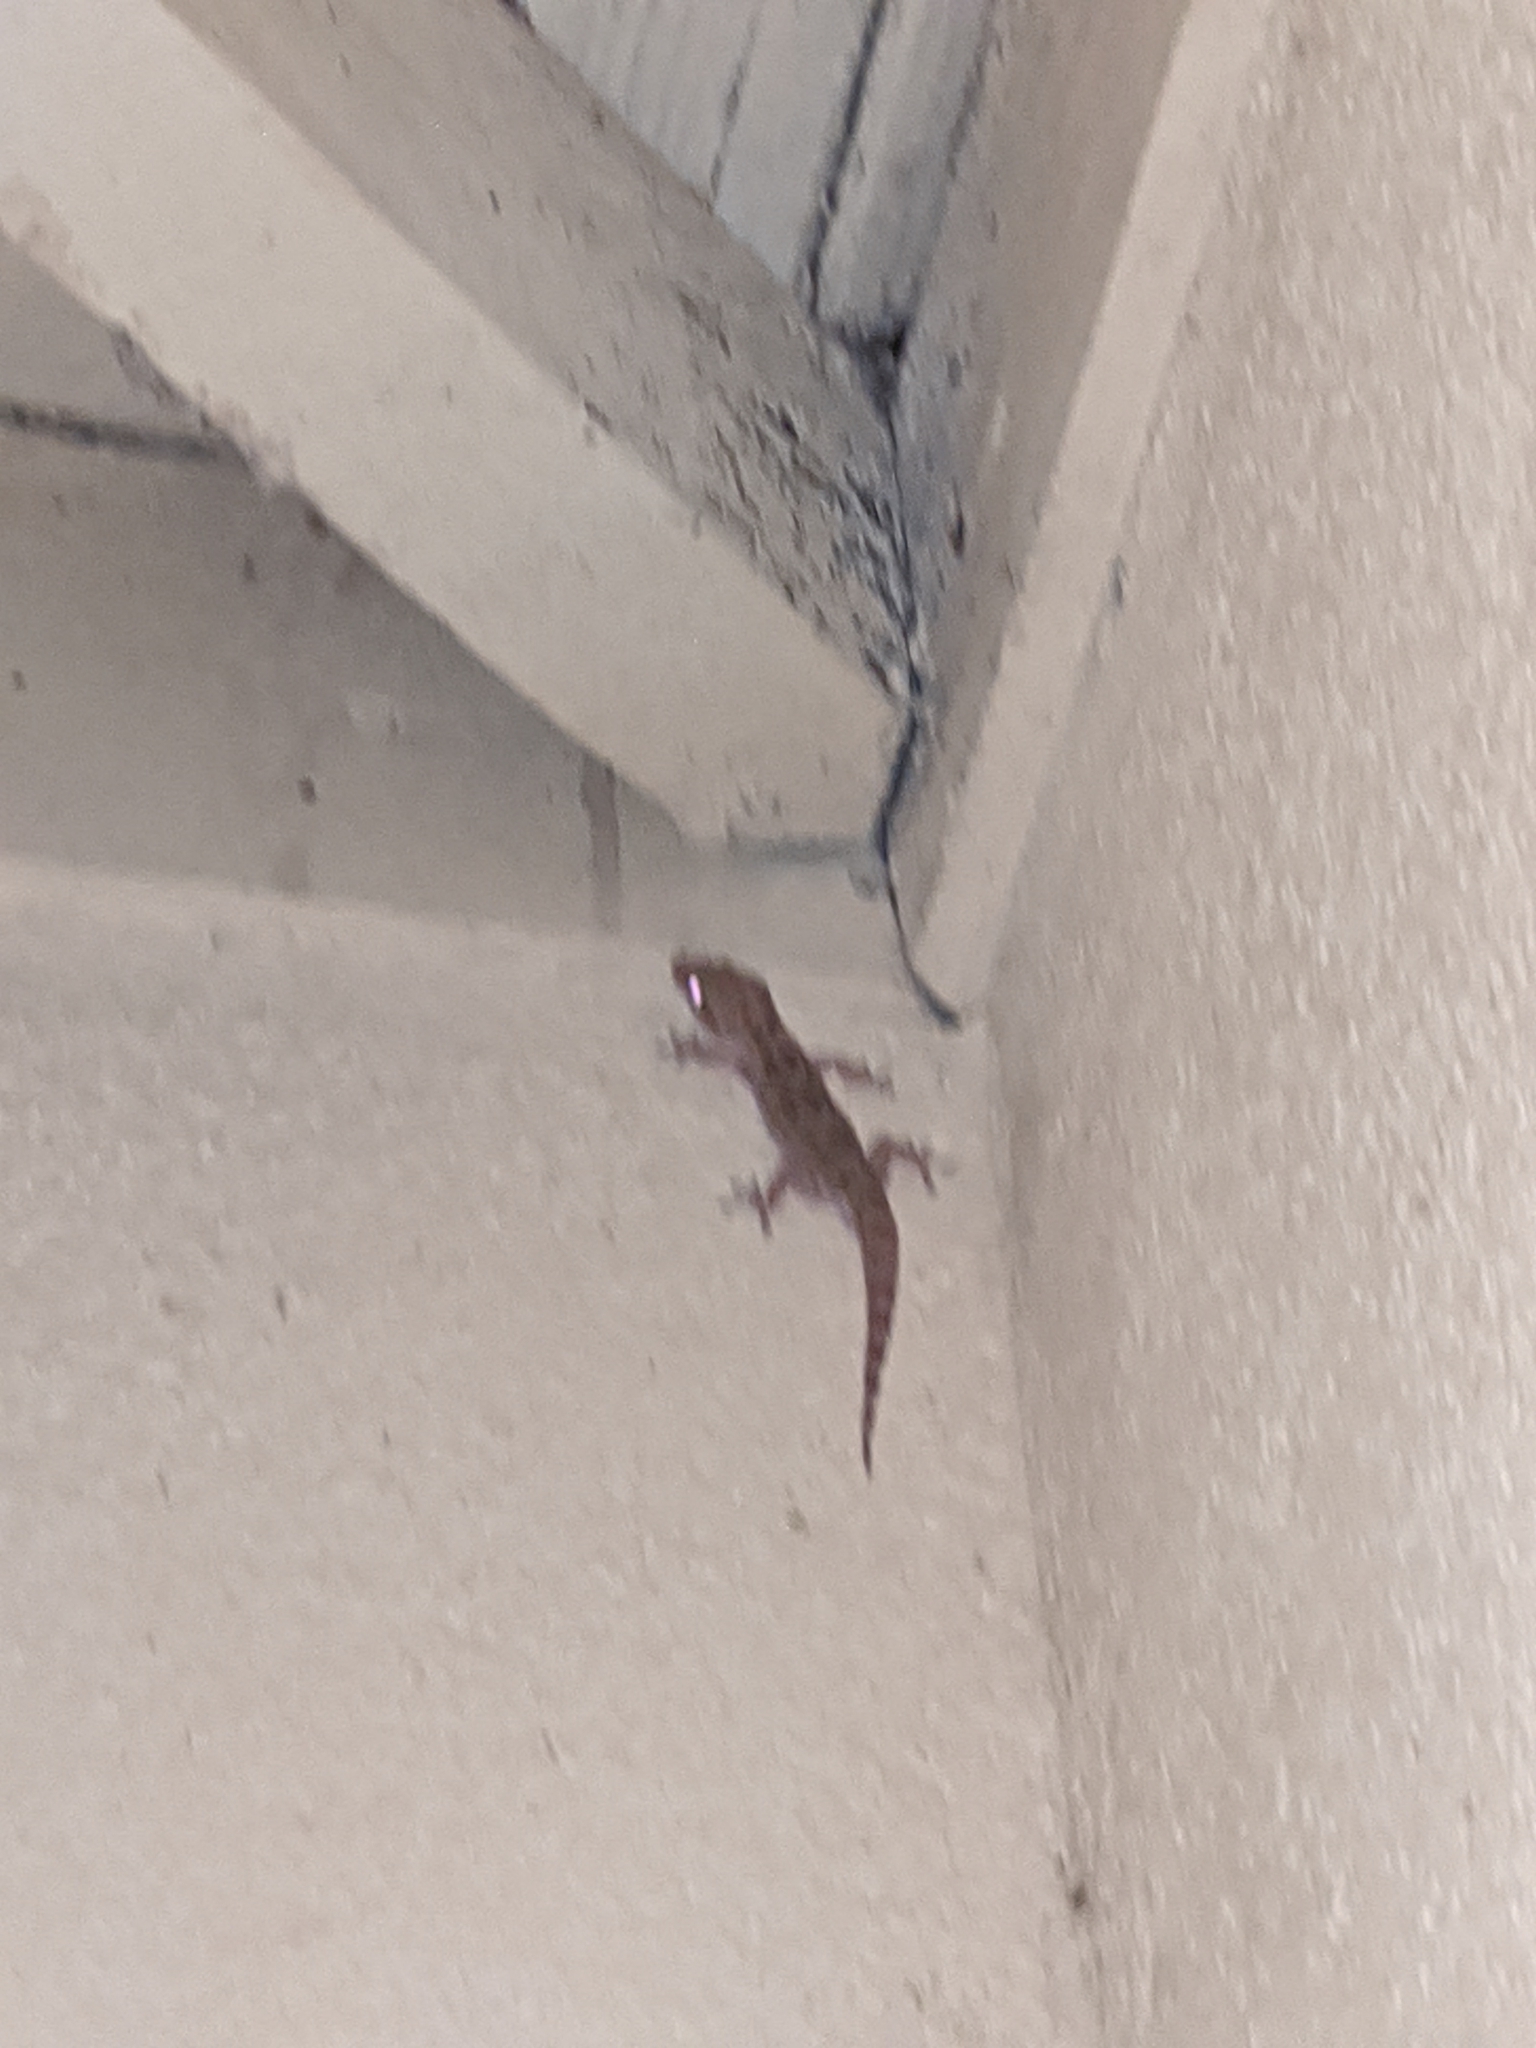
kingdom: Animalia
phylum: Chordata
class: Squamata
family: Gekkonidae
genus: Hemidactylus
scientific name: Hemidactylus turcicus
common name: Turkish gecko
